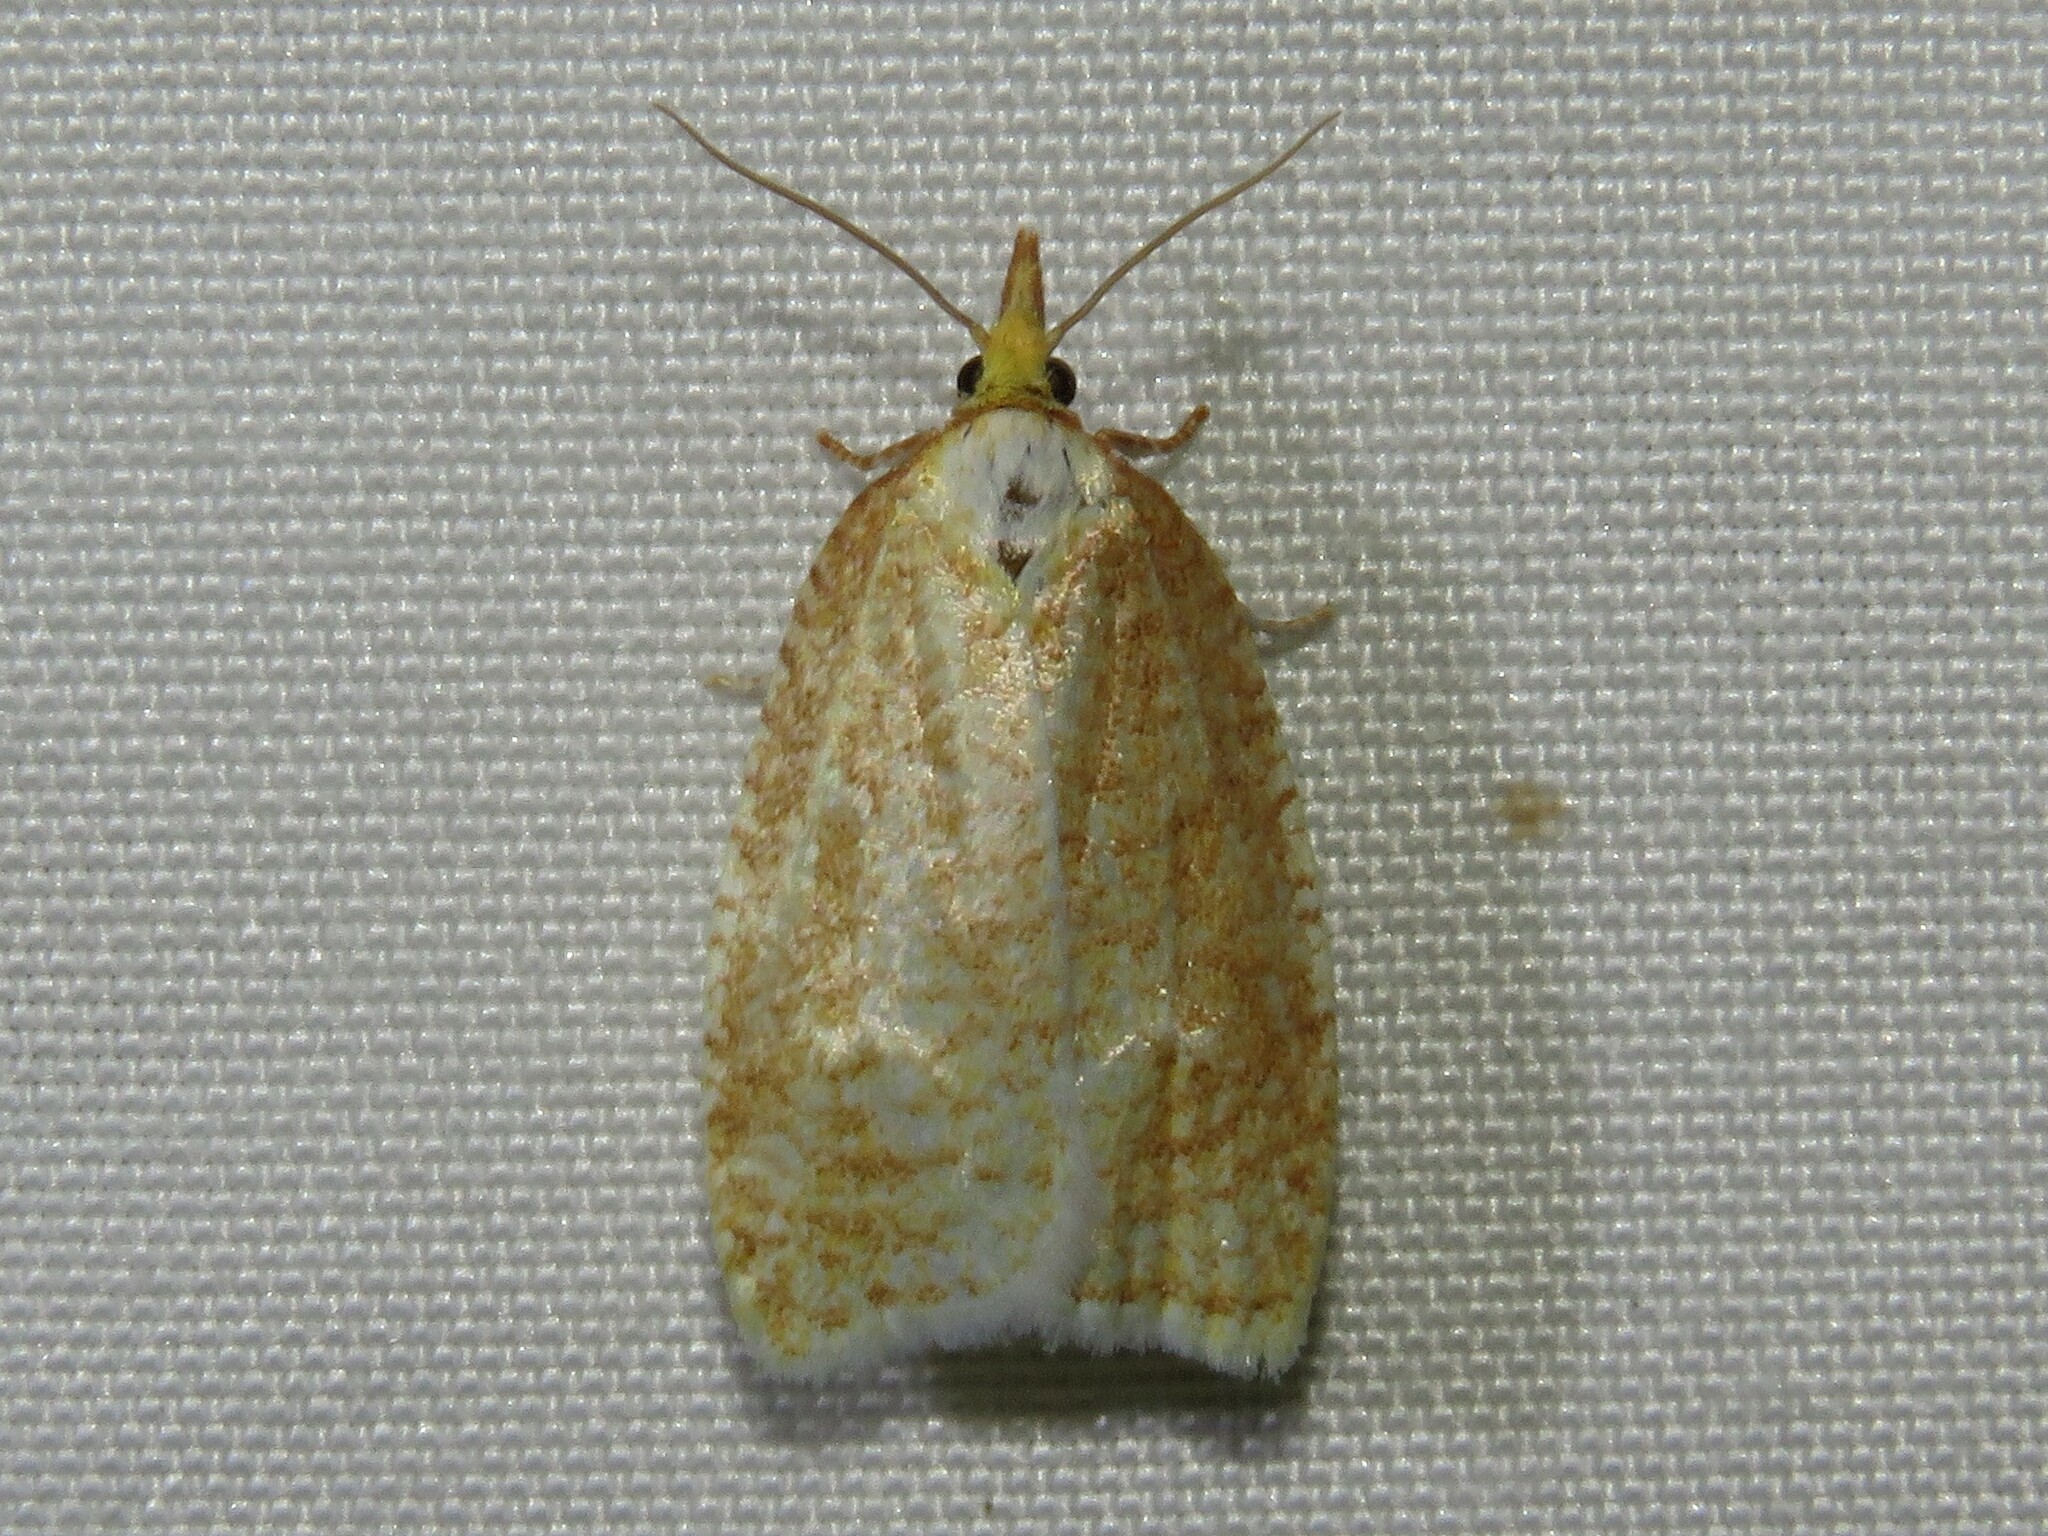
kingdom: Animalia
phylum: Arthropoda
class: Insecta
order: Lepidoptera
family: Tortricidae
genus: Cenopis
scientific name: Cenopis pettitana
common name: Maple-basswood leafroller moth
